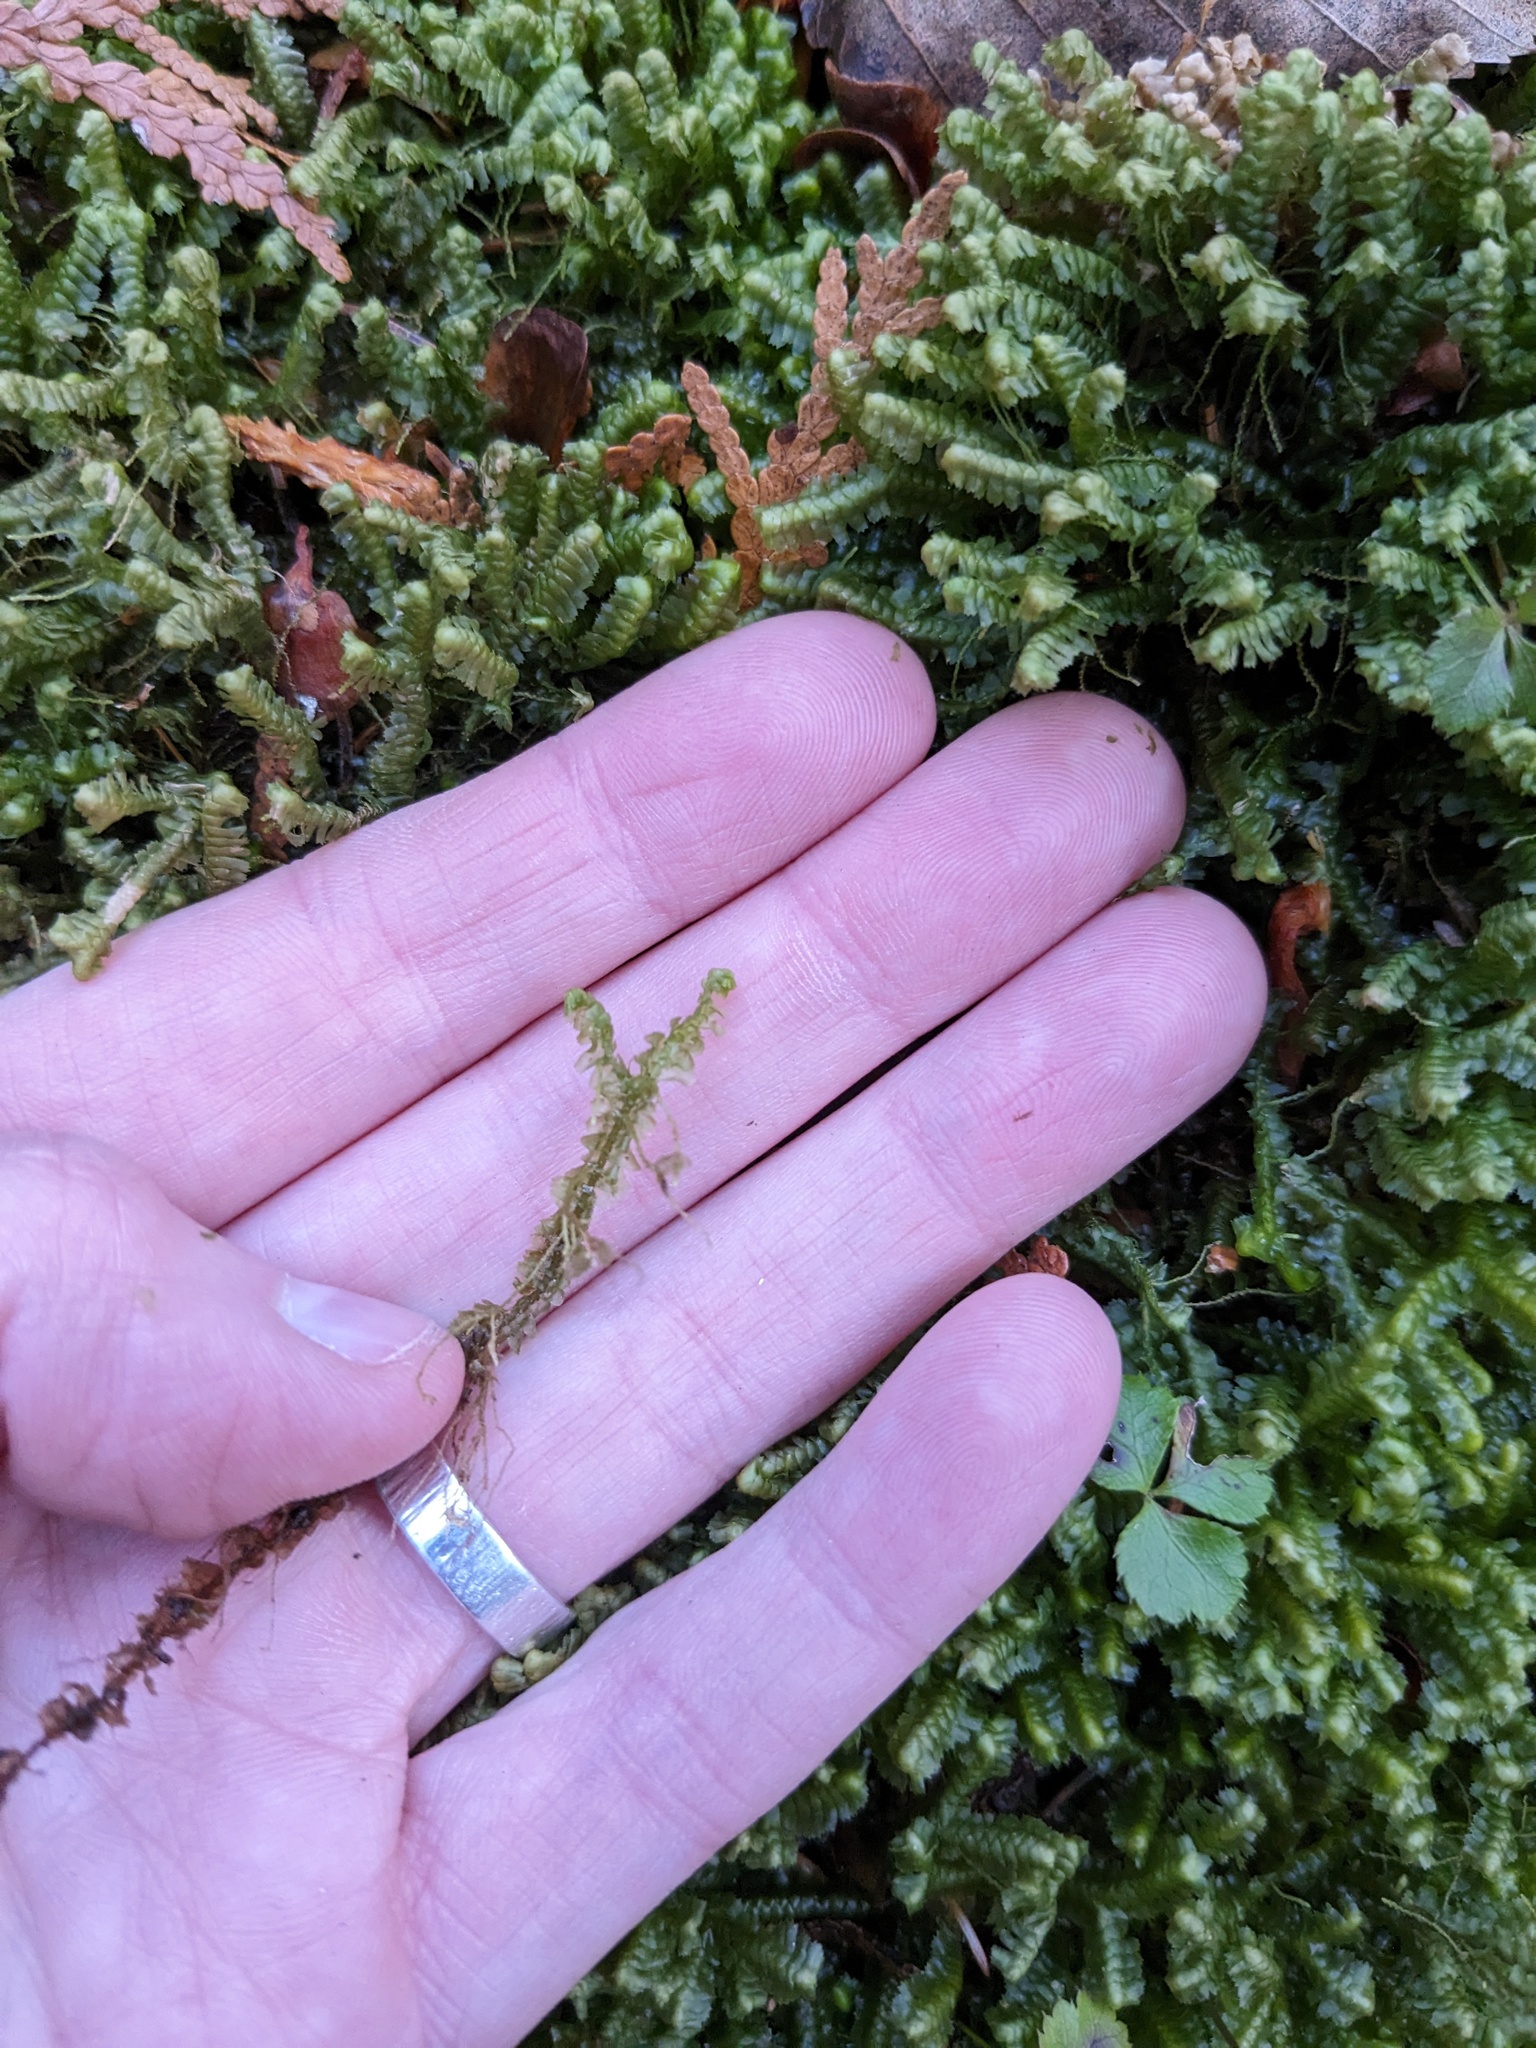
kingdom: Plantae
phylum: Marchantiophyta
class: Jungermanniopsida
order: Jungermanniales
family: Lepidoziaceae
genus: Bazzania
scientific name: Bazzania trilobata
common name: Three-lobed whipwort
